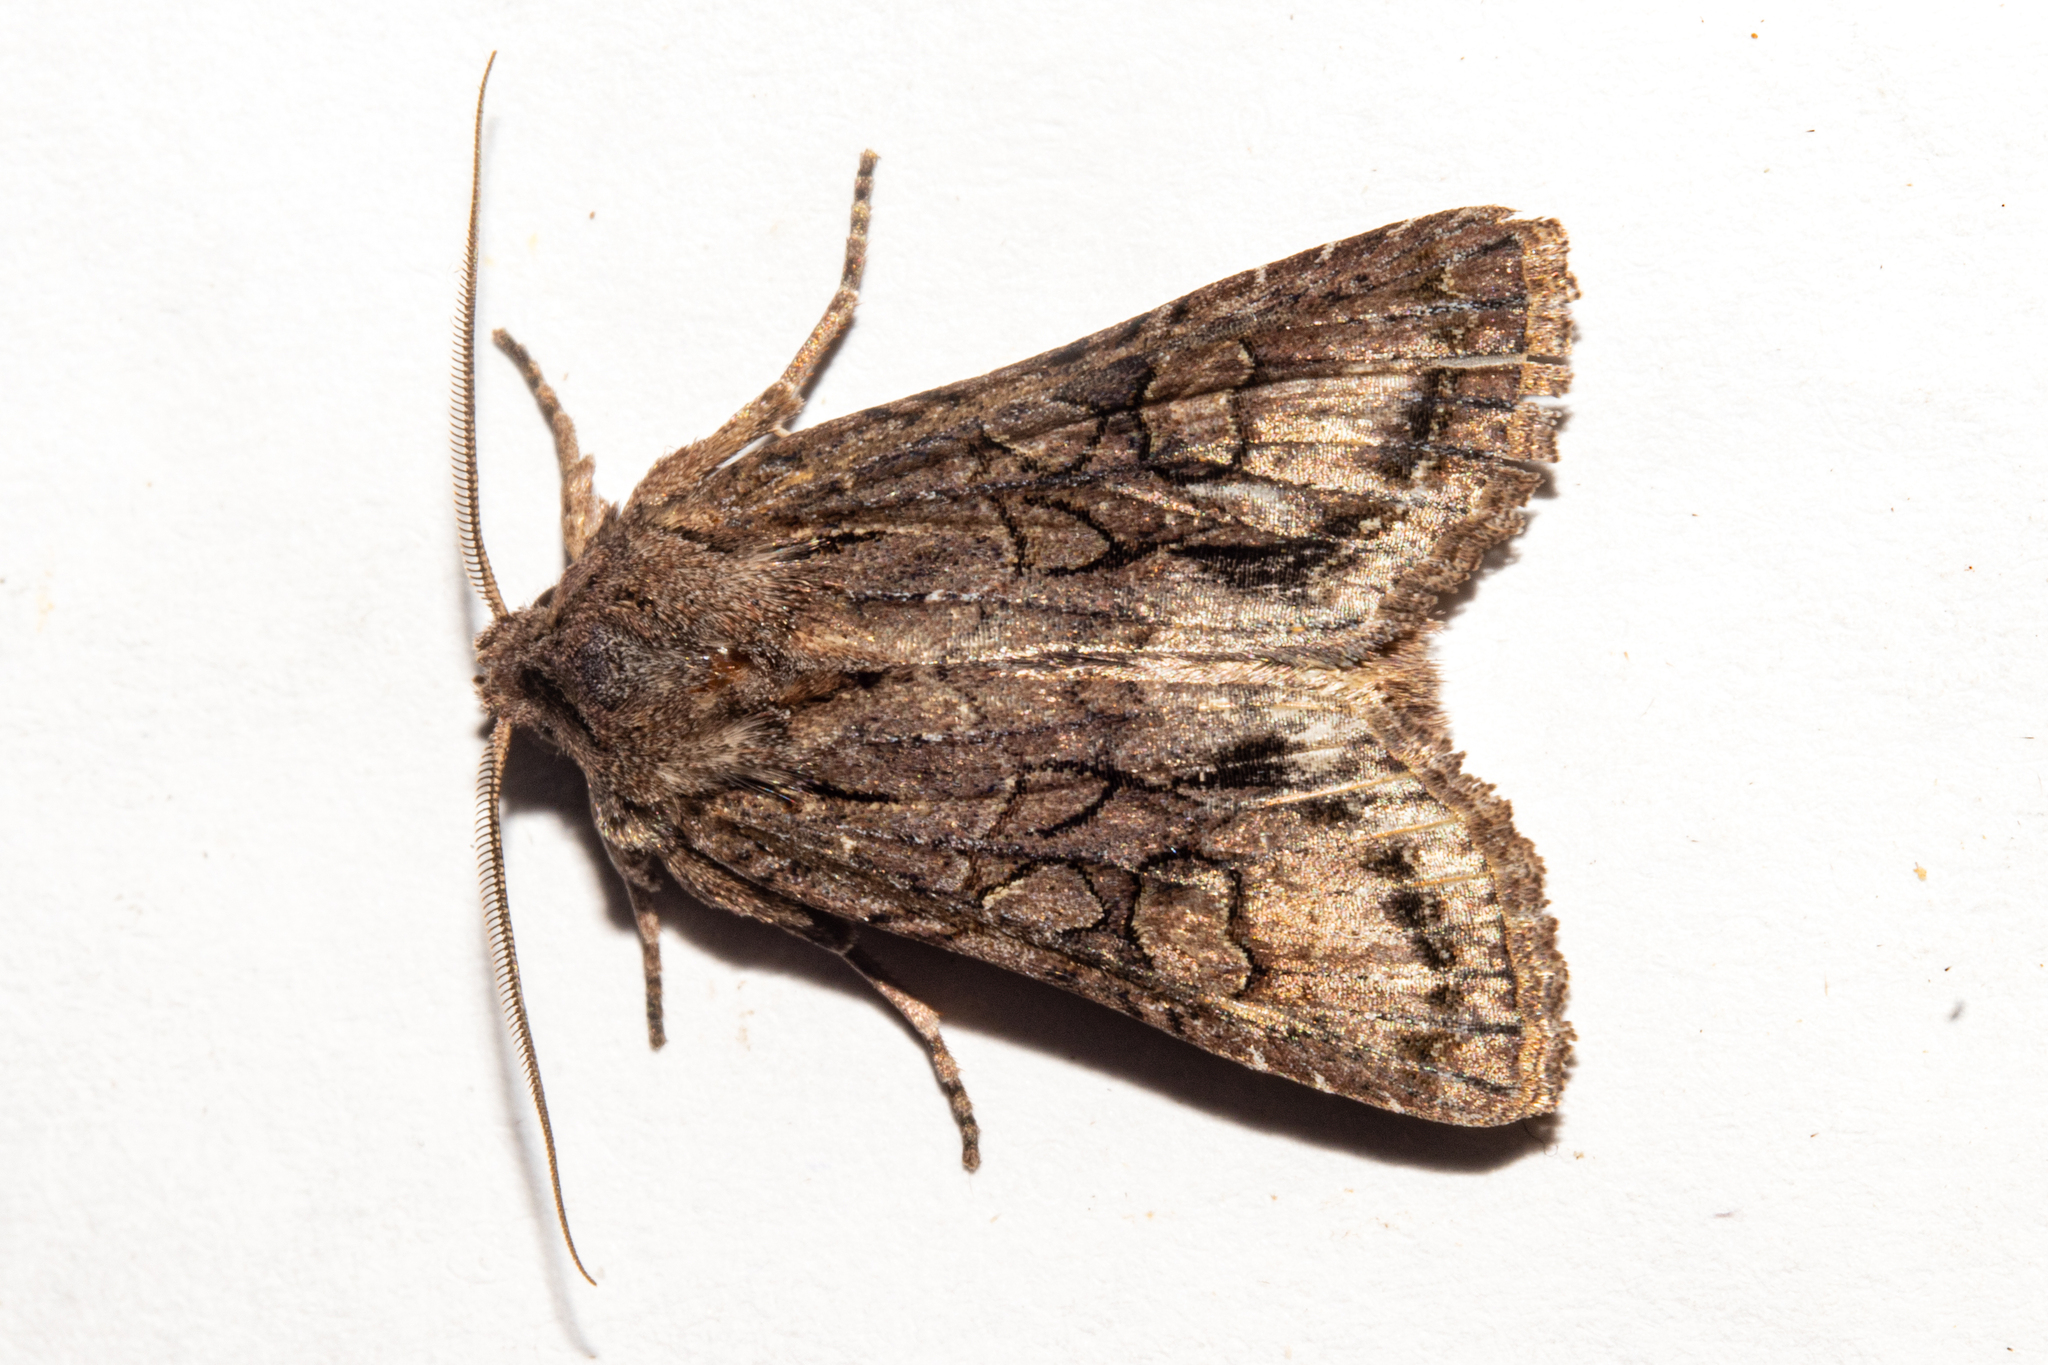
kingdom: Animalia
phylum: Arthropoda
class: Insecta
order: Lepidoptera
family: Noctuidae
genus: Ichneutica
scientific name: Ichneutica mutans
